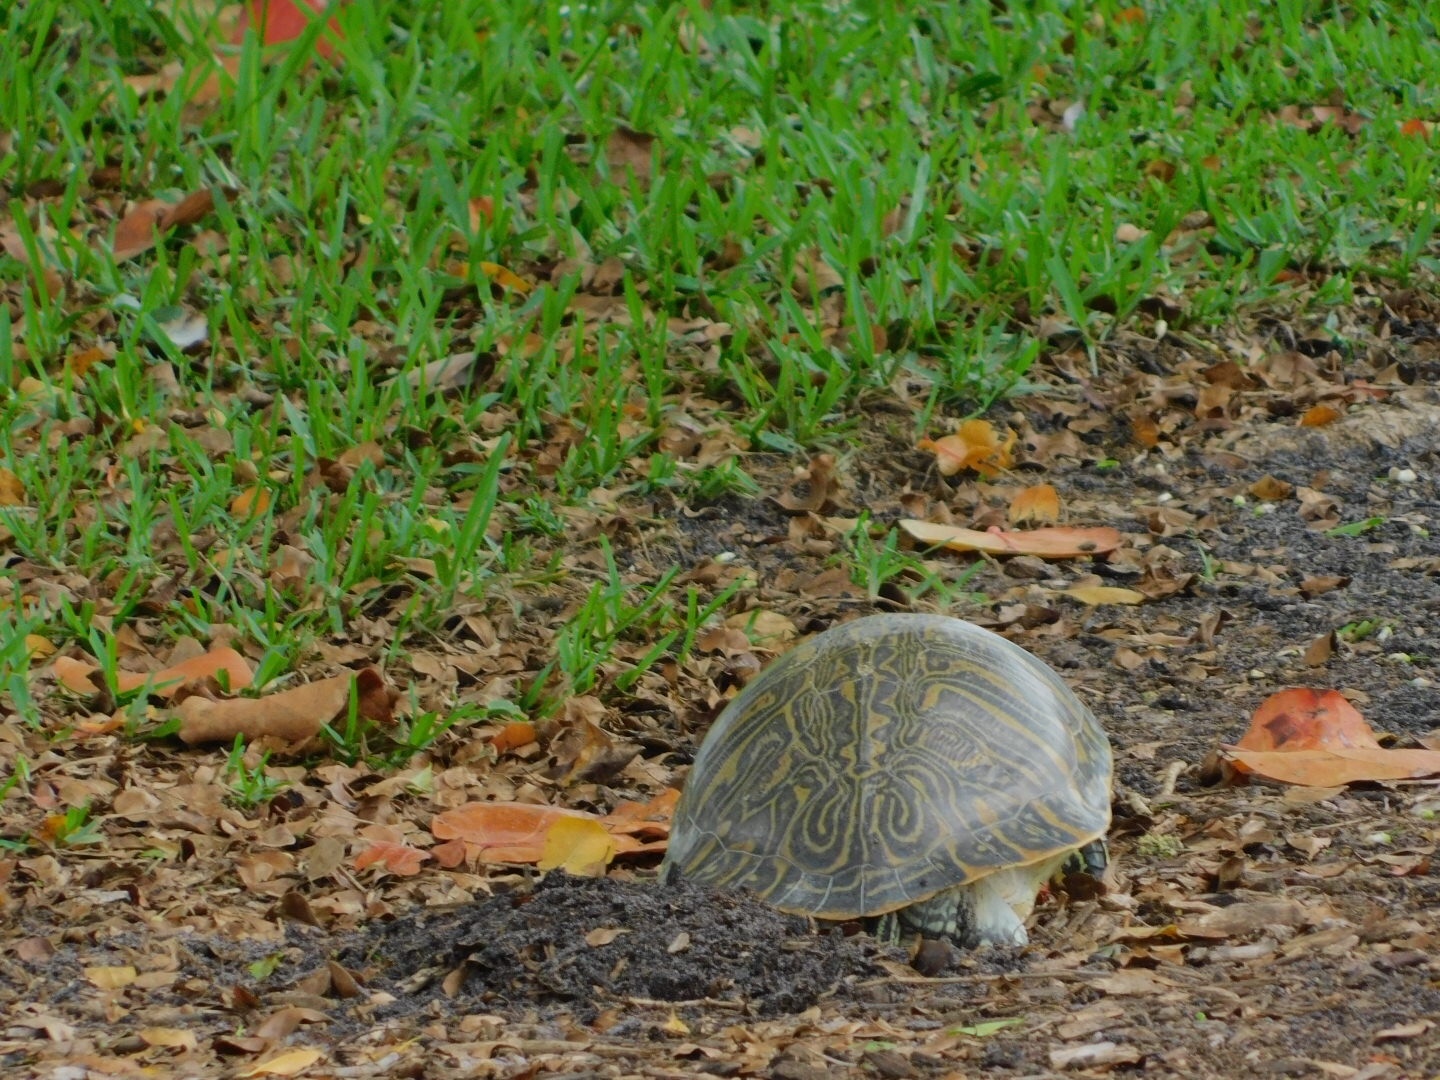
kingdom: Animalia
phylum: Chordata
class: Testudines
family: Emydidae
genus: Pseudemys
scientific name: Pseudemys peninsularis
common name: Peninsula cooter
